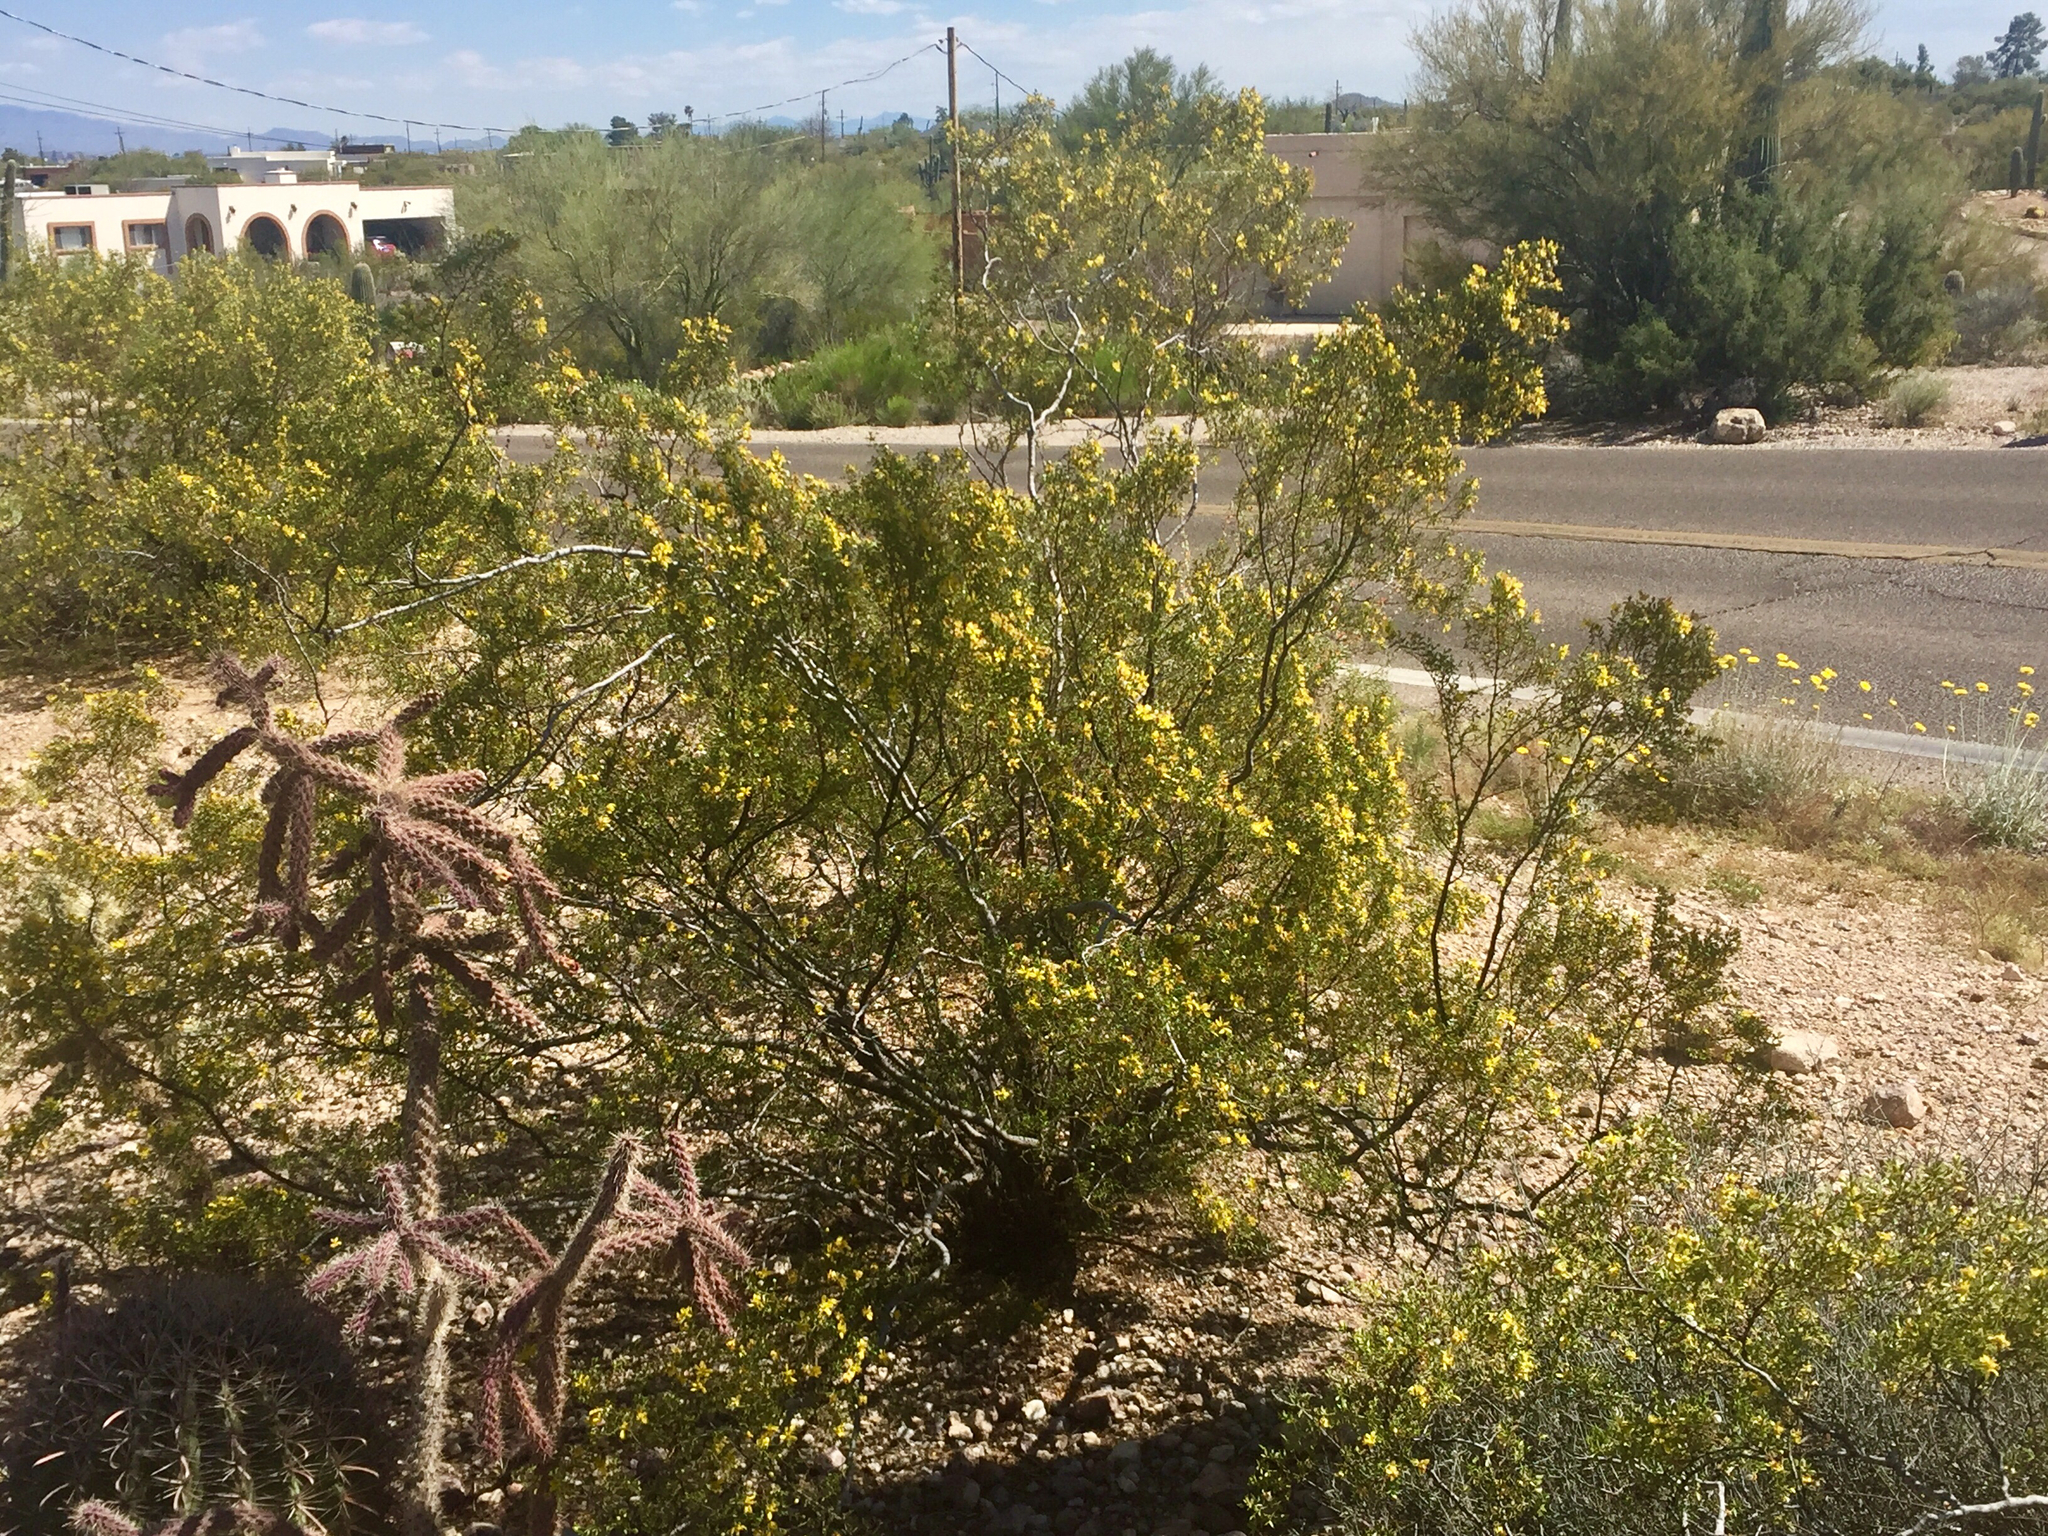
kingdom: Plantae
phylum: Tracheophyta
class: Magnoliopsida
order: Zygophyllales
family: Zygophyllaceae
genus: Larrea
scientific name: Larrea tridentata
